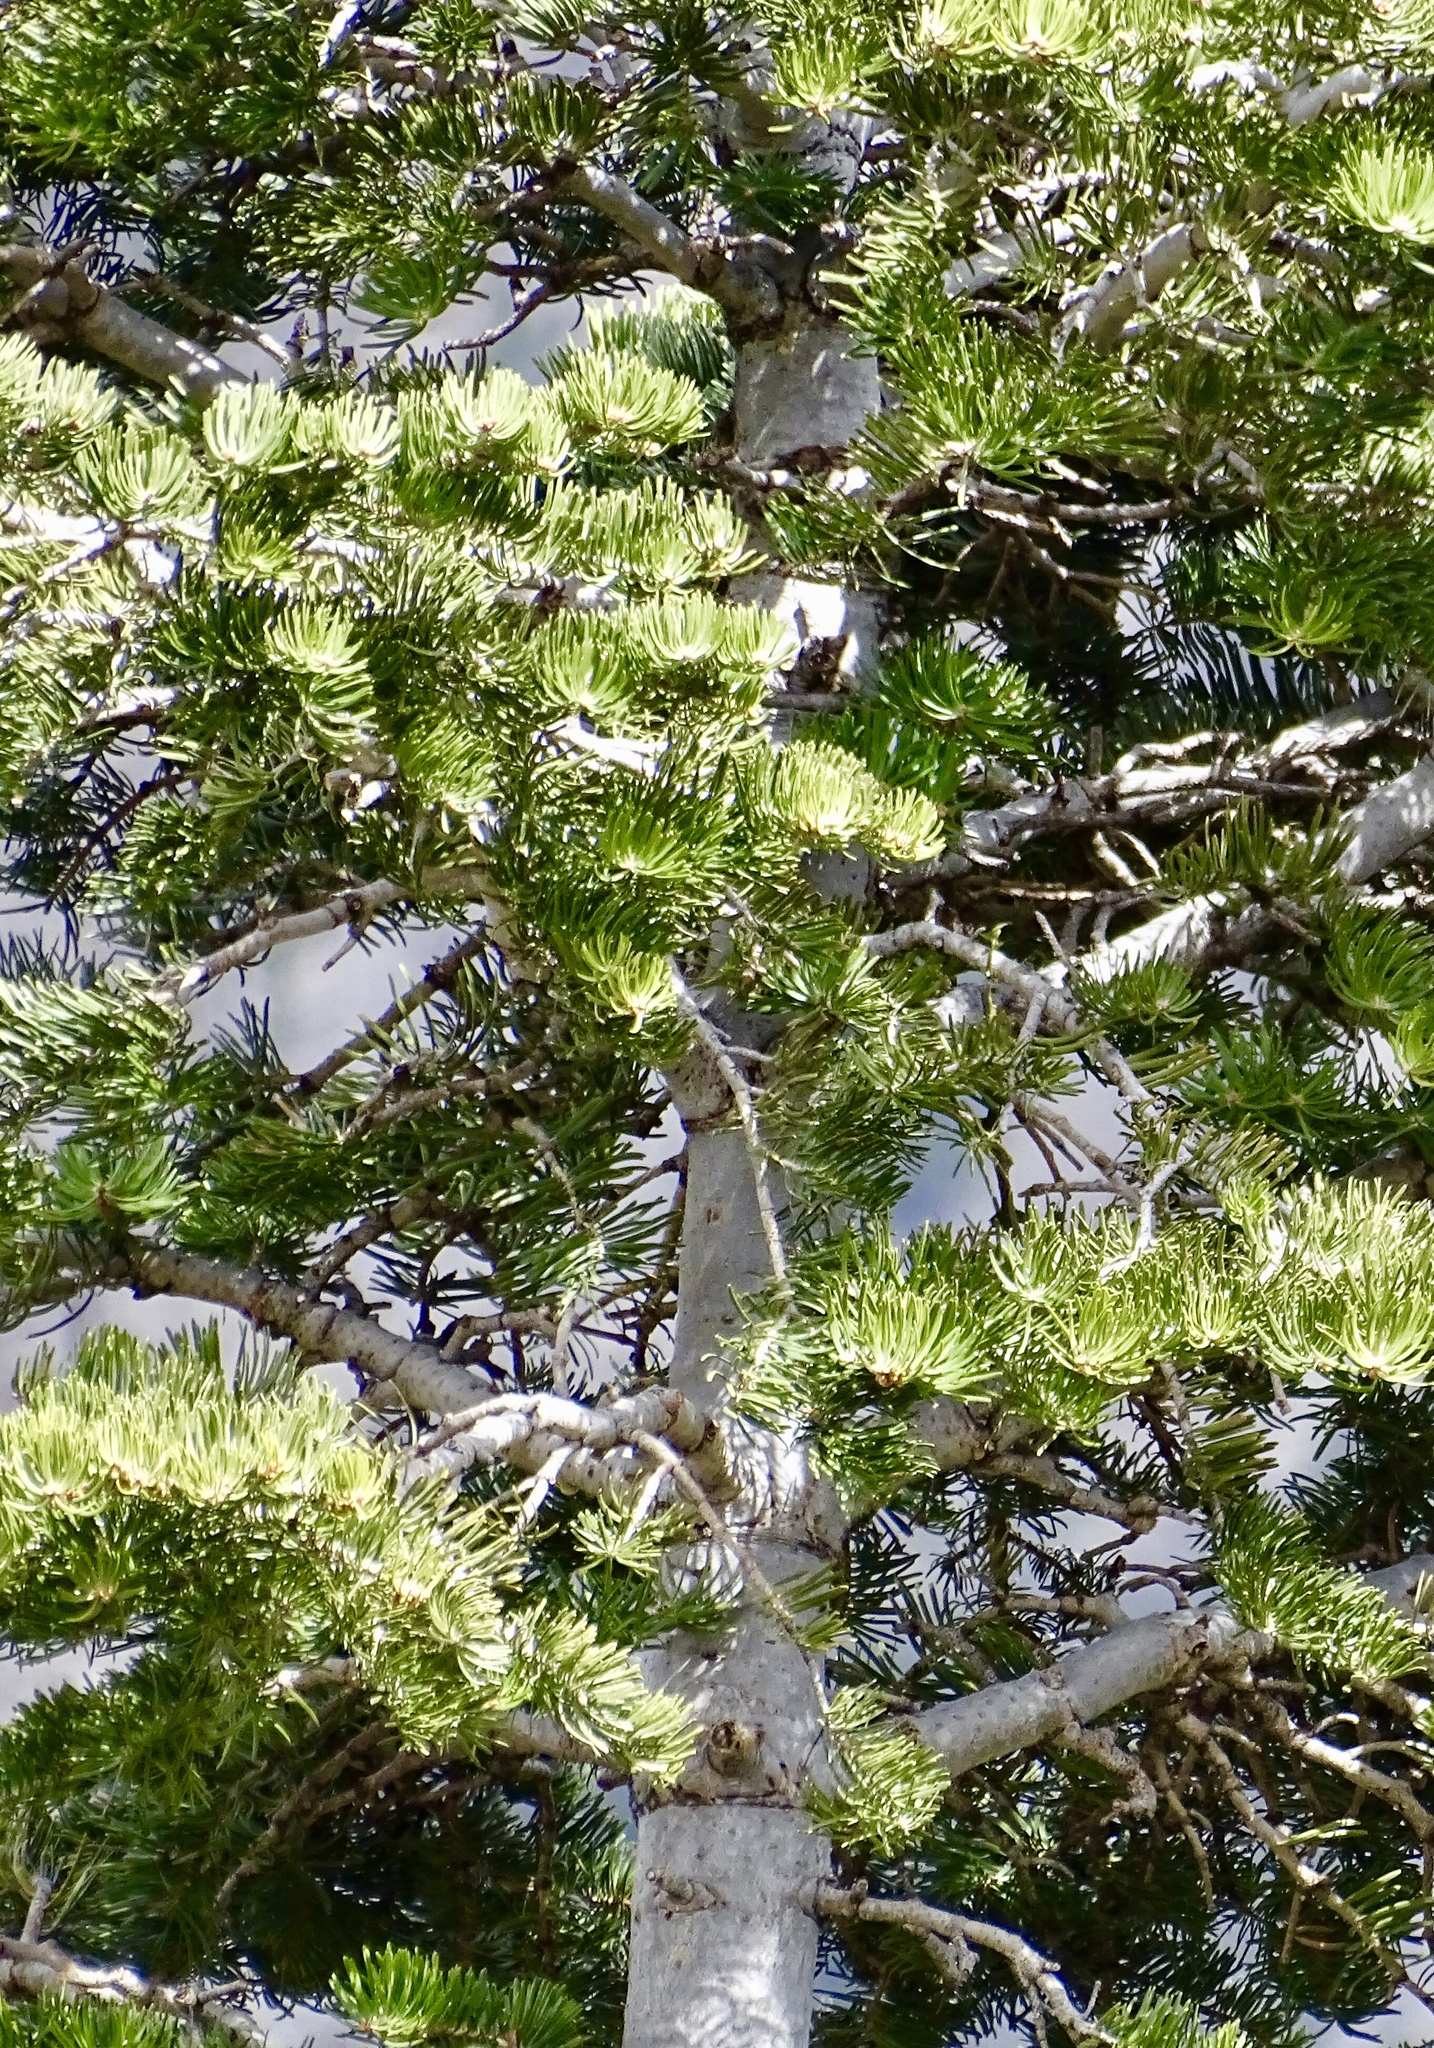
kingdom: Plantae
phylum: Tracheophyta
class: Pinopsida
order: Pinales
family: Pinaceae
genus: Abies
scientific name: Abies concolor
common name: Colorado fir
